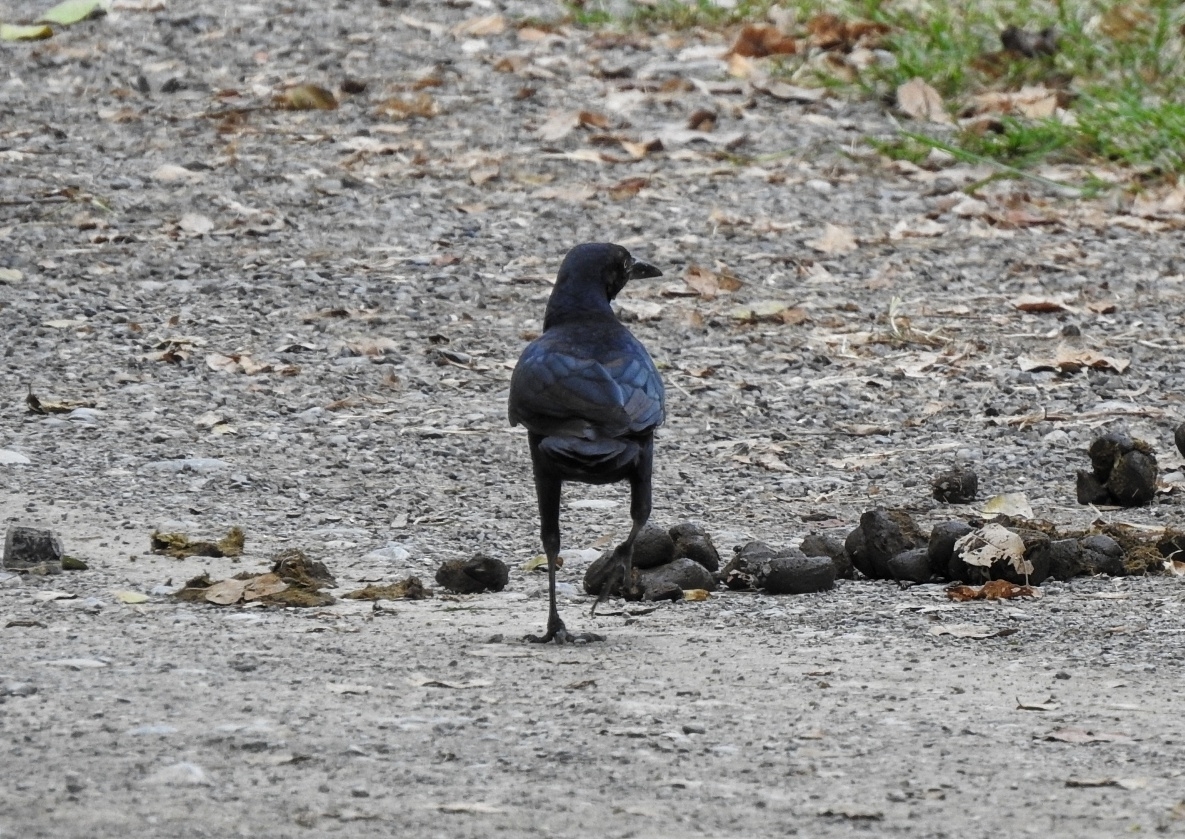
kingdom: Animalia
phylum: Chordata
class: Aves
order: Passeriformes
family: Icteridae
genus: Quiscalus
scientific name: Quiscalus mexicanus
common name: Great-tailed grackle
